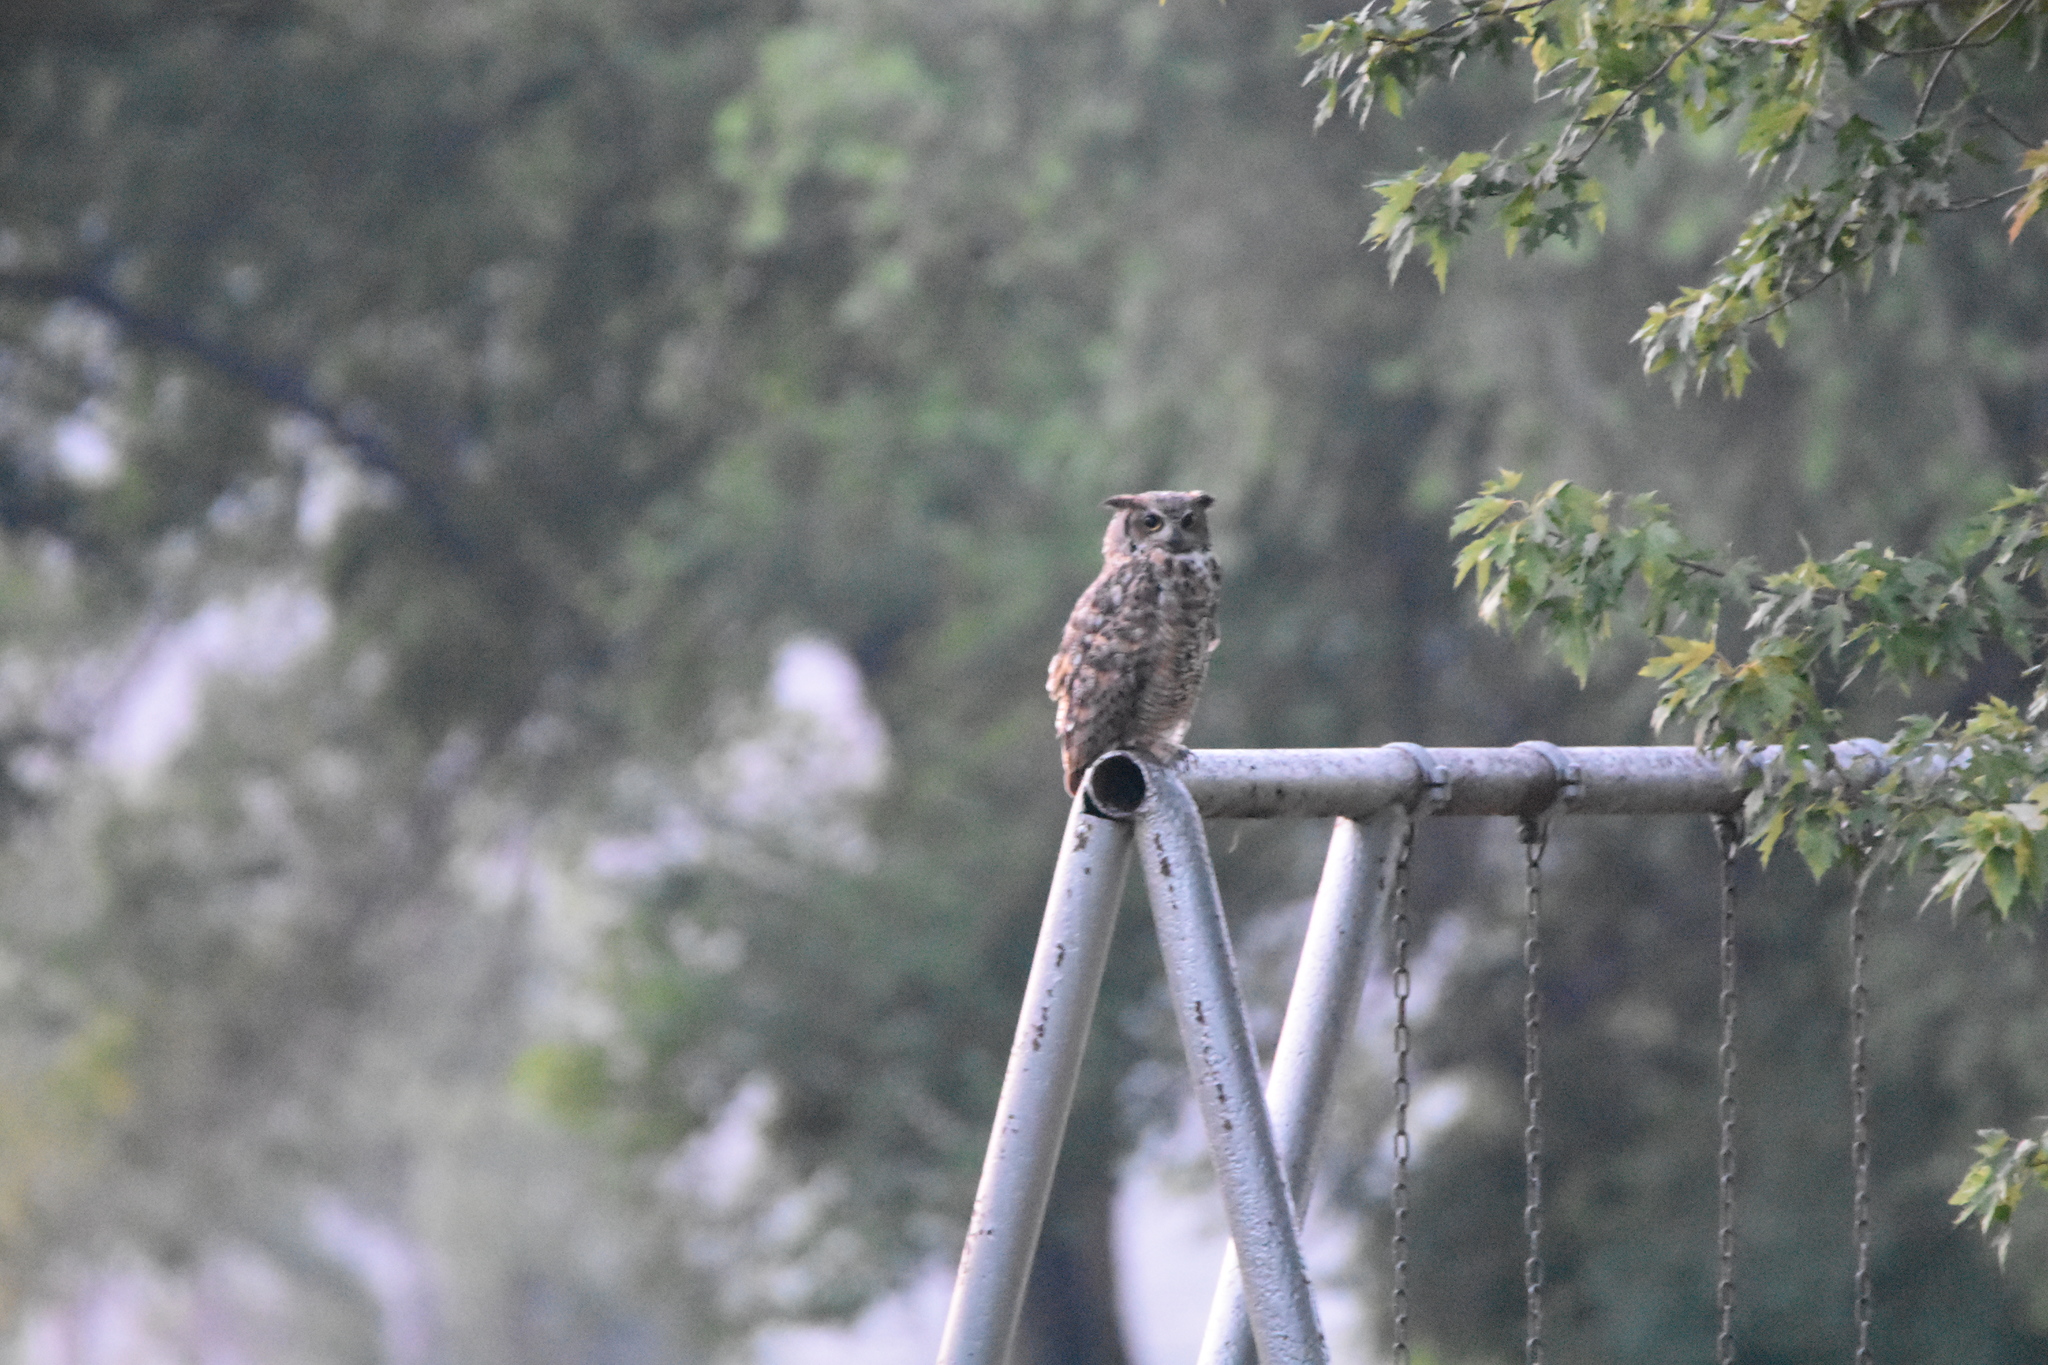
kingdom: Animalia
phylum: Chordata
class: Aves
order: Strigiformes
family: Strigidae
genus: Bubo
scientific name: Bubo virginianus
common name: Great horned owl
